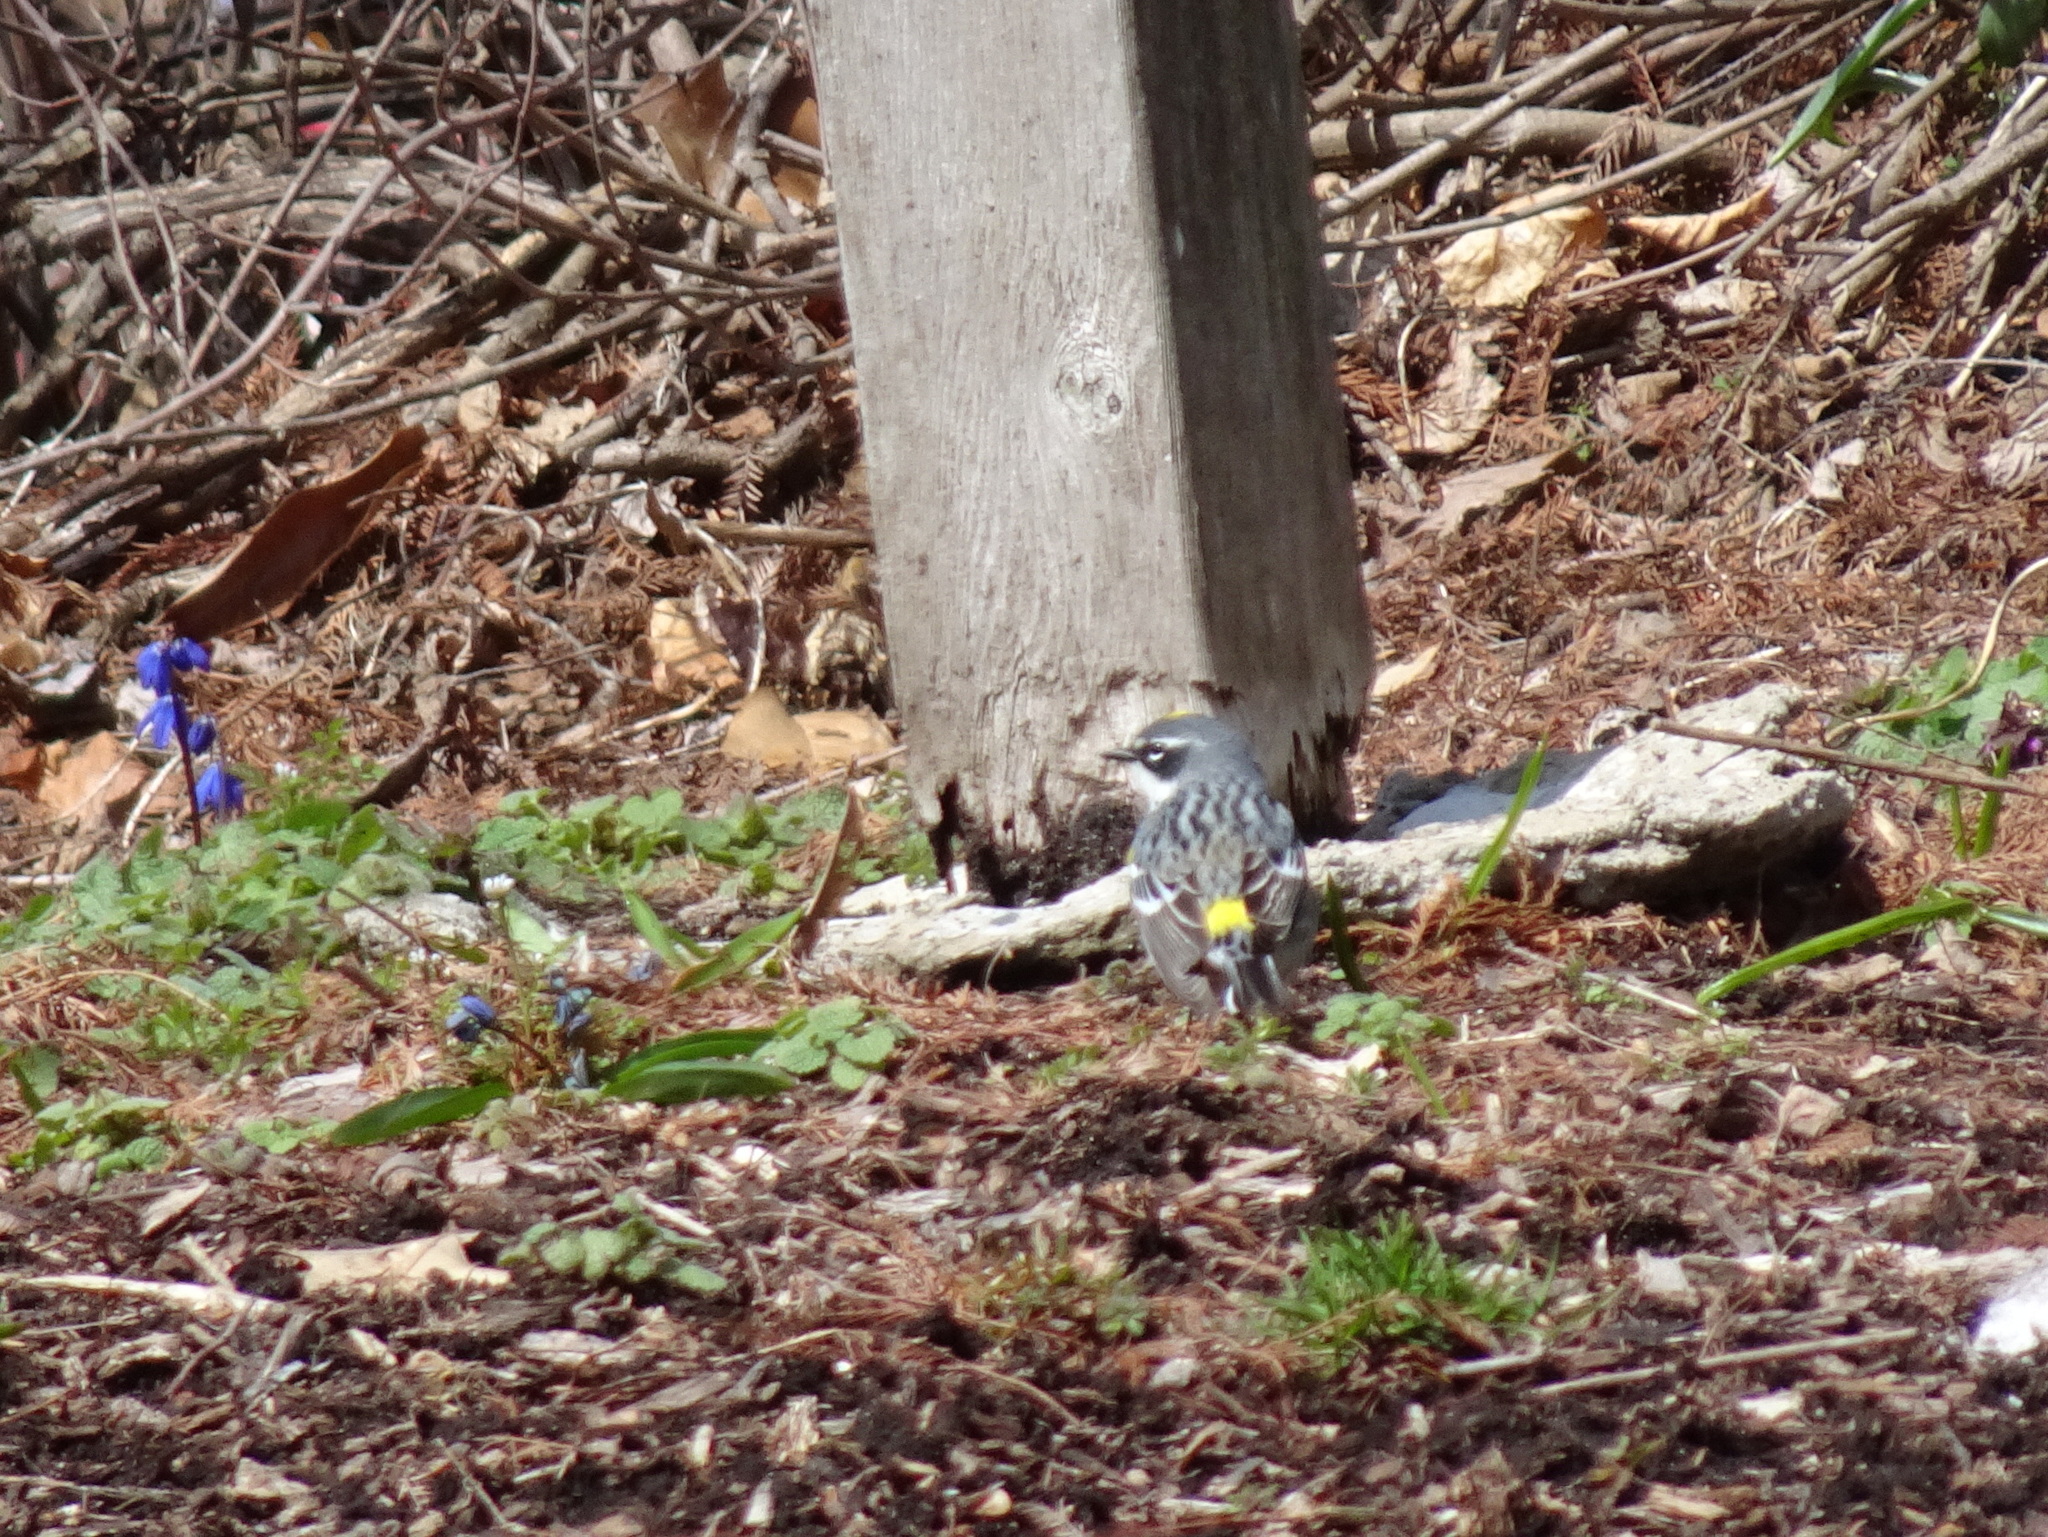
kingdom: Animalia
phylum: Chordata
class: Aves
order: Passeriformes
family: Parulidae
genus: Setophaga
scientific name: Setophaga coronata
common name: Myrtle warbler
